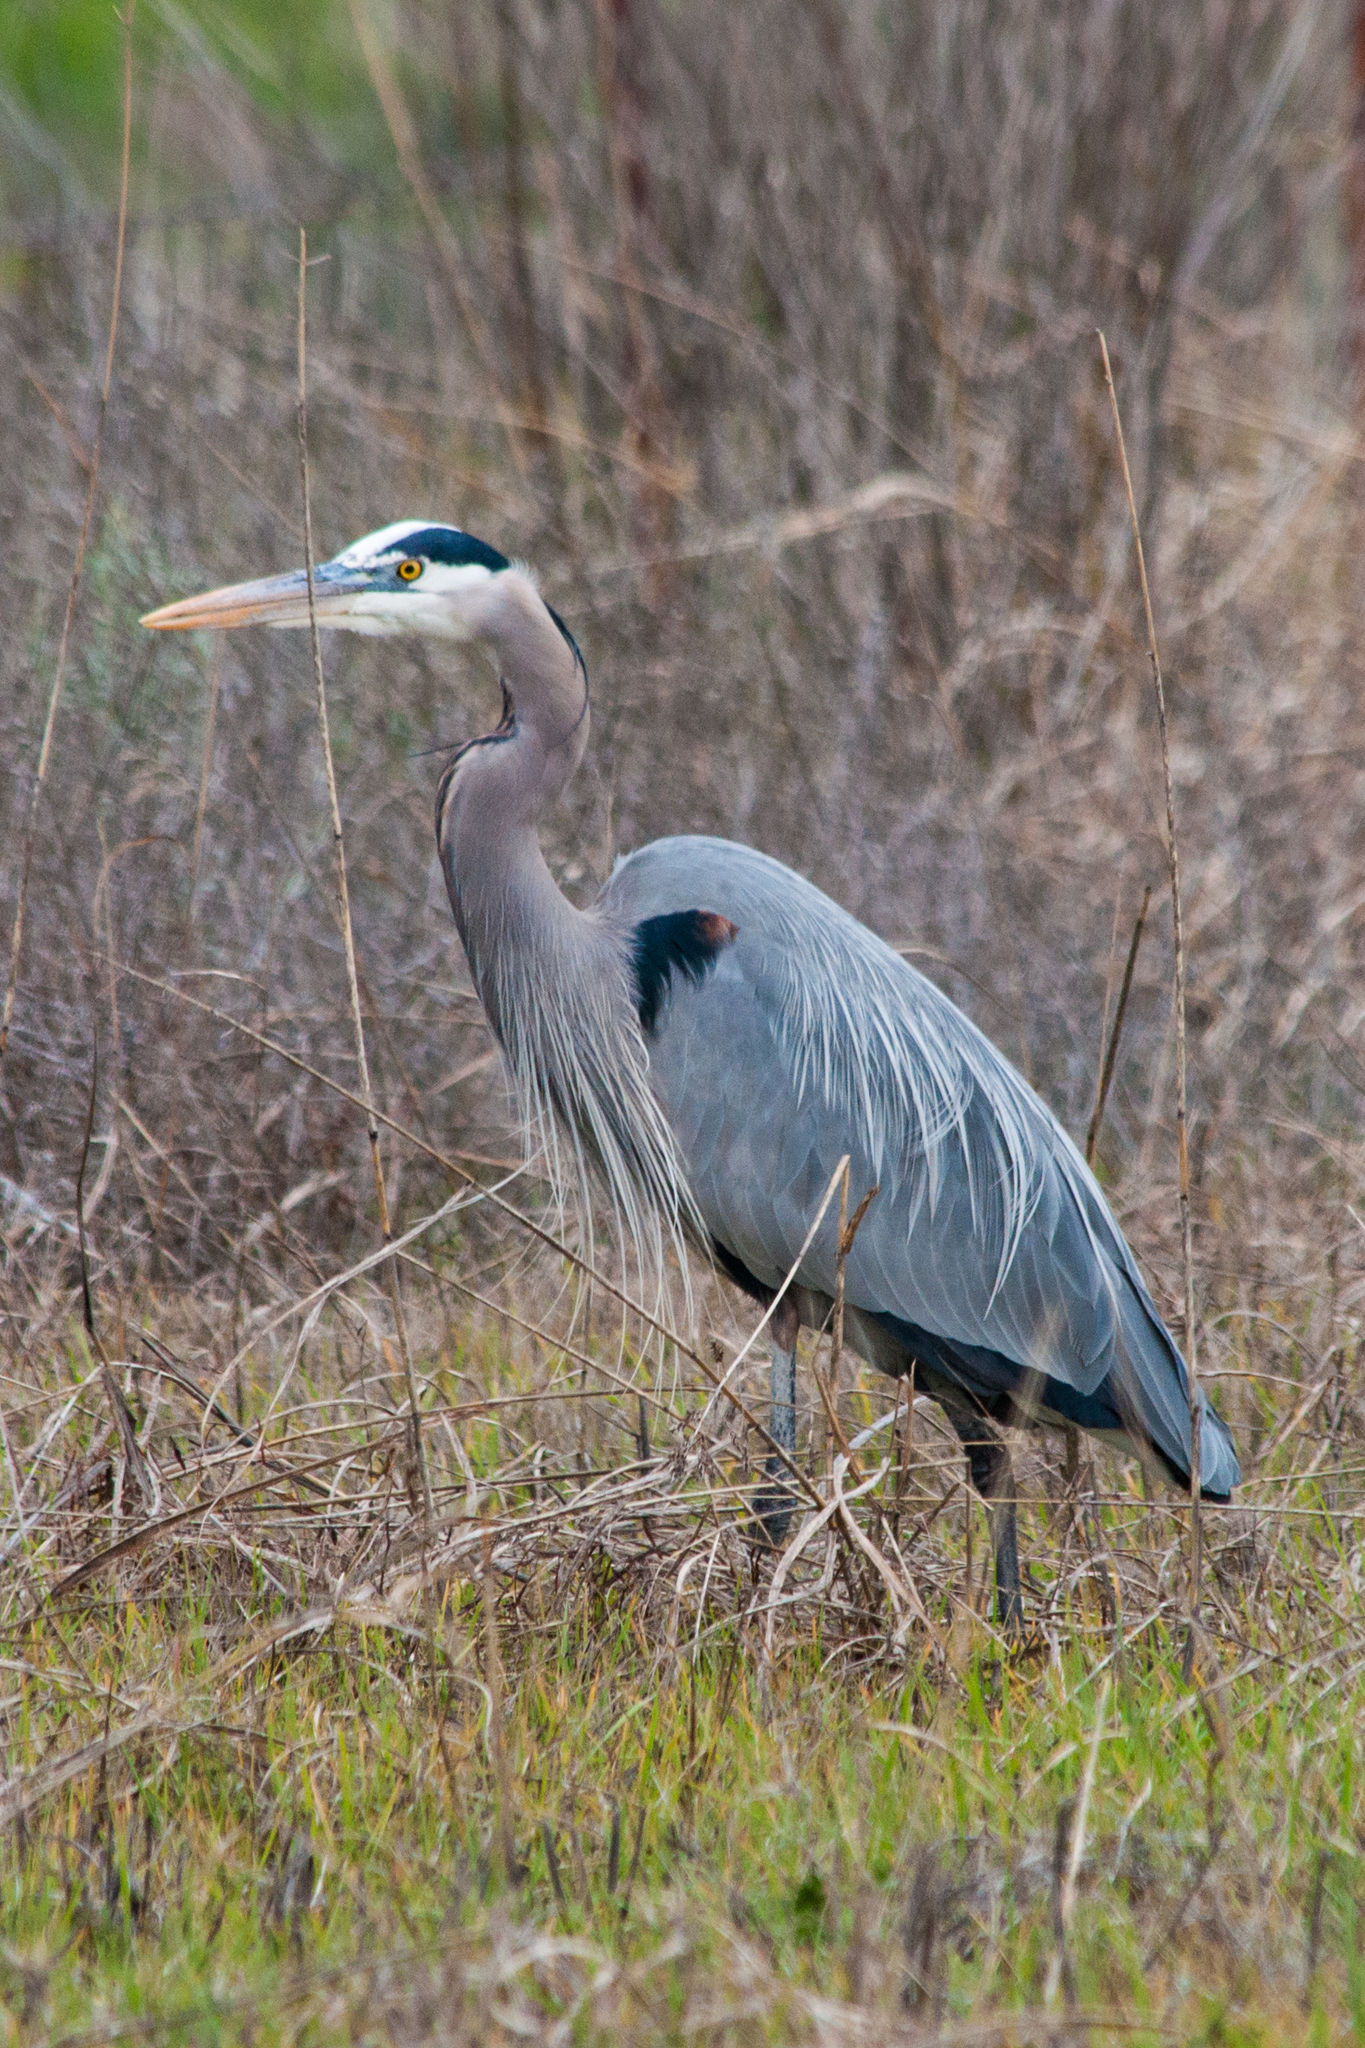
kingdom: Animalia
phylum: Chordata
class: Aves
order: Pelecaniformes
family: Ardeidae
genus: Ardea
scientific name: Ardea herodias
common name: Great blue heron
